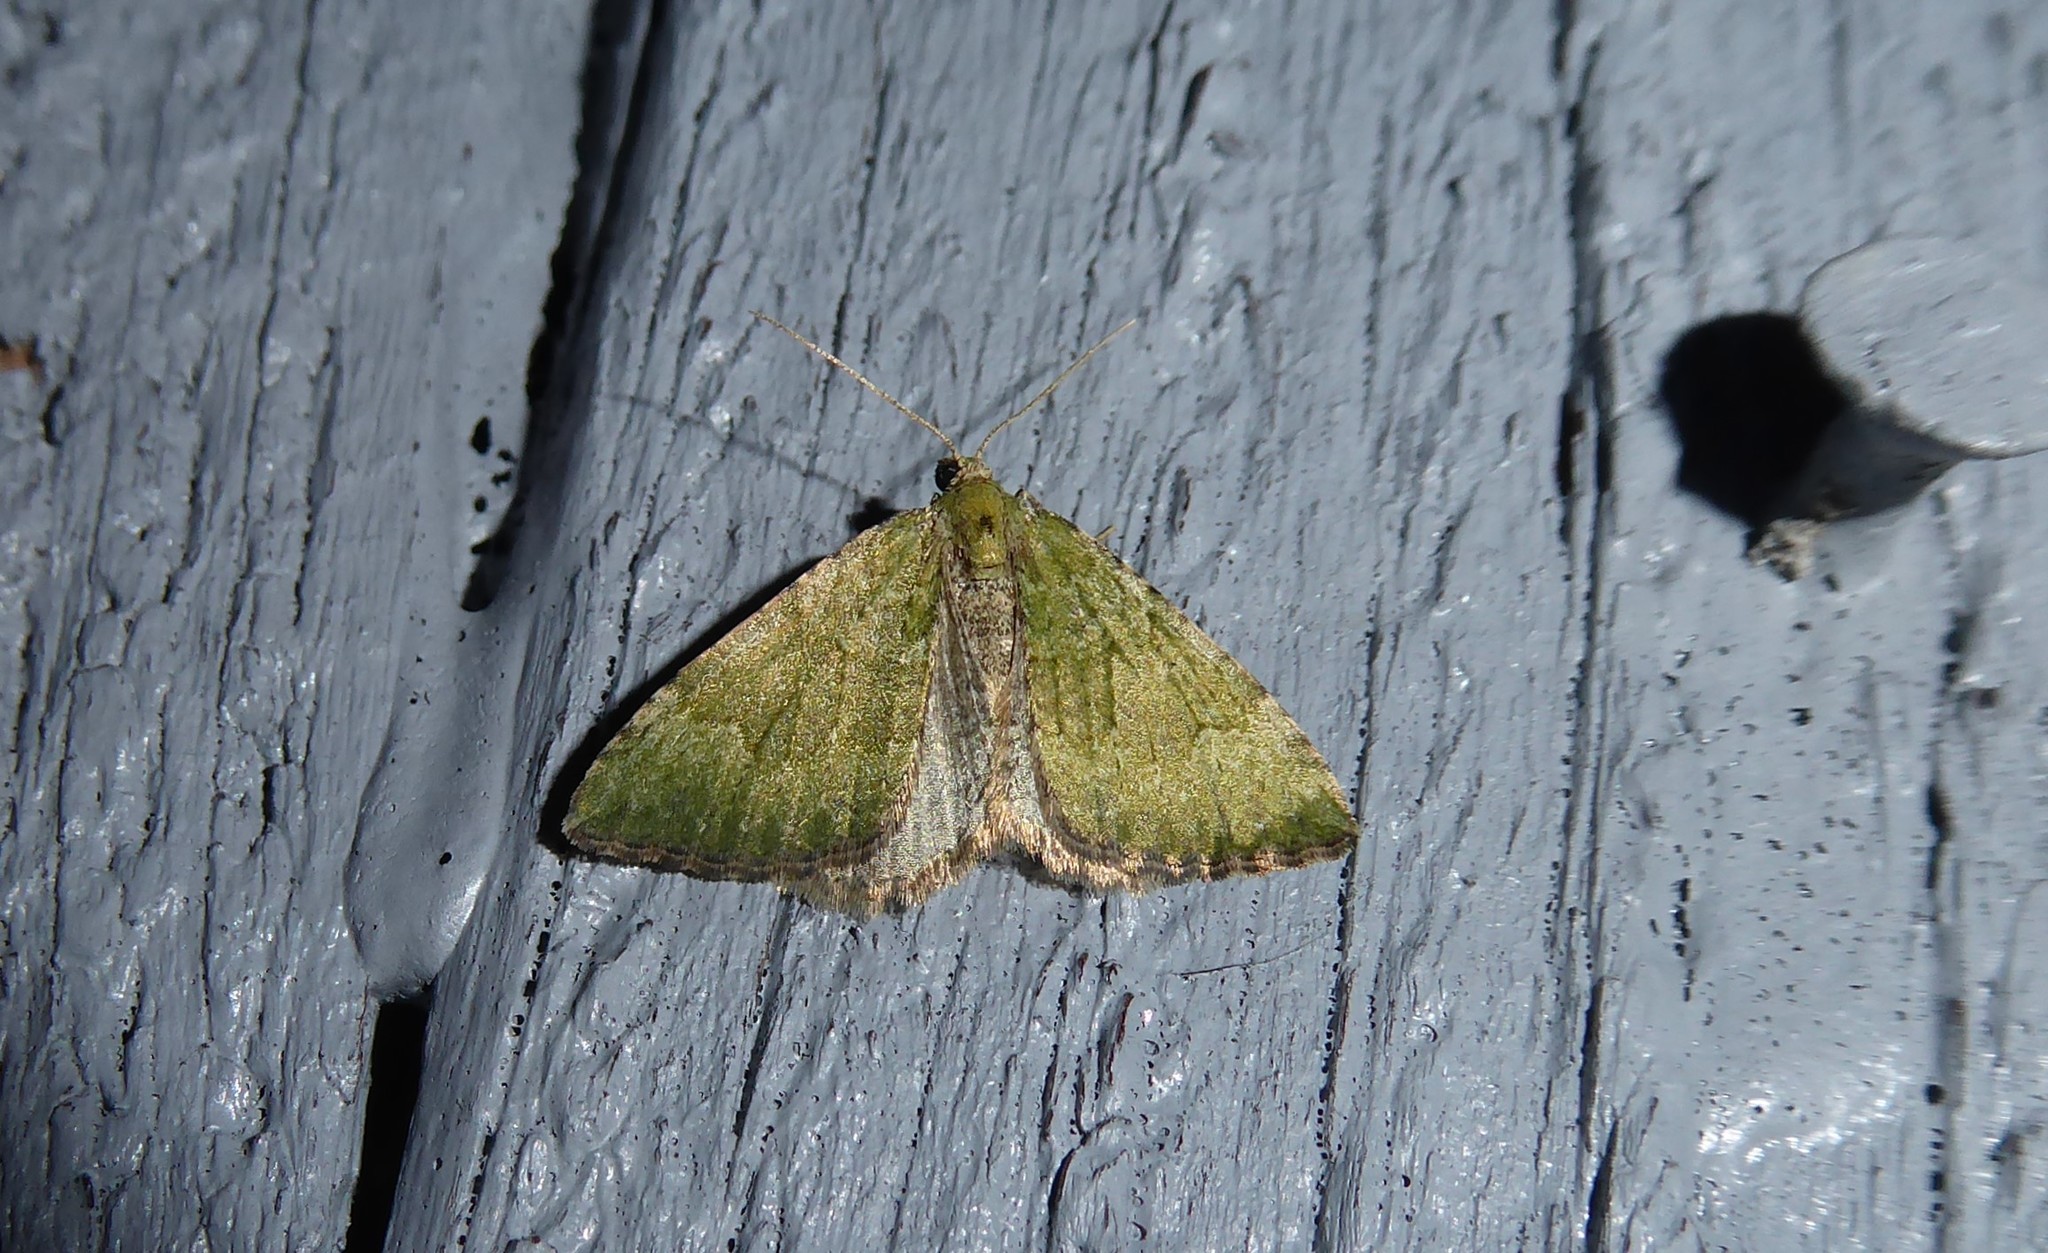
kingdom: Animalia
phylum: Arthropoda
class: Insecta
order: Lepidoptera
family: Geometridae
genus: Epyaxa
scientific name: Epyaxa rosearia
